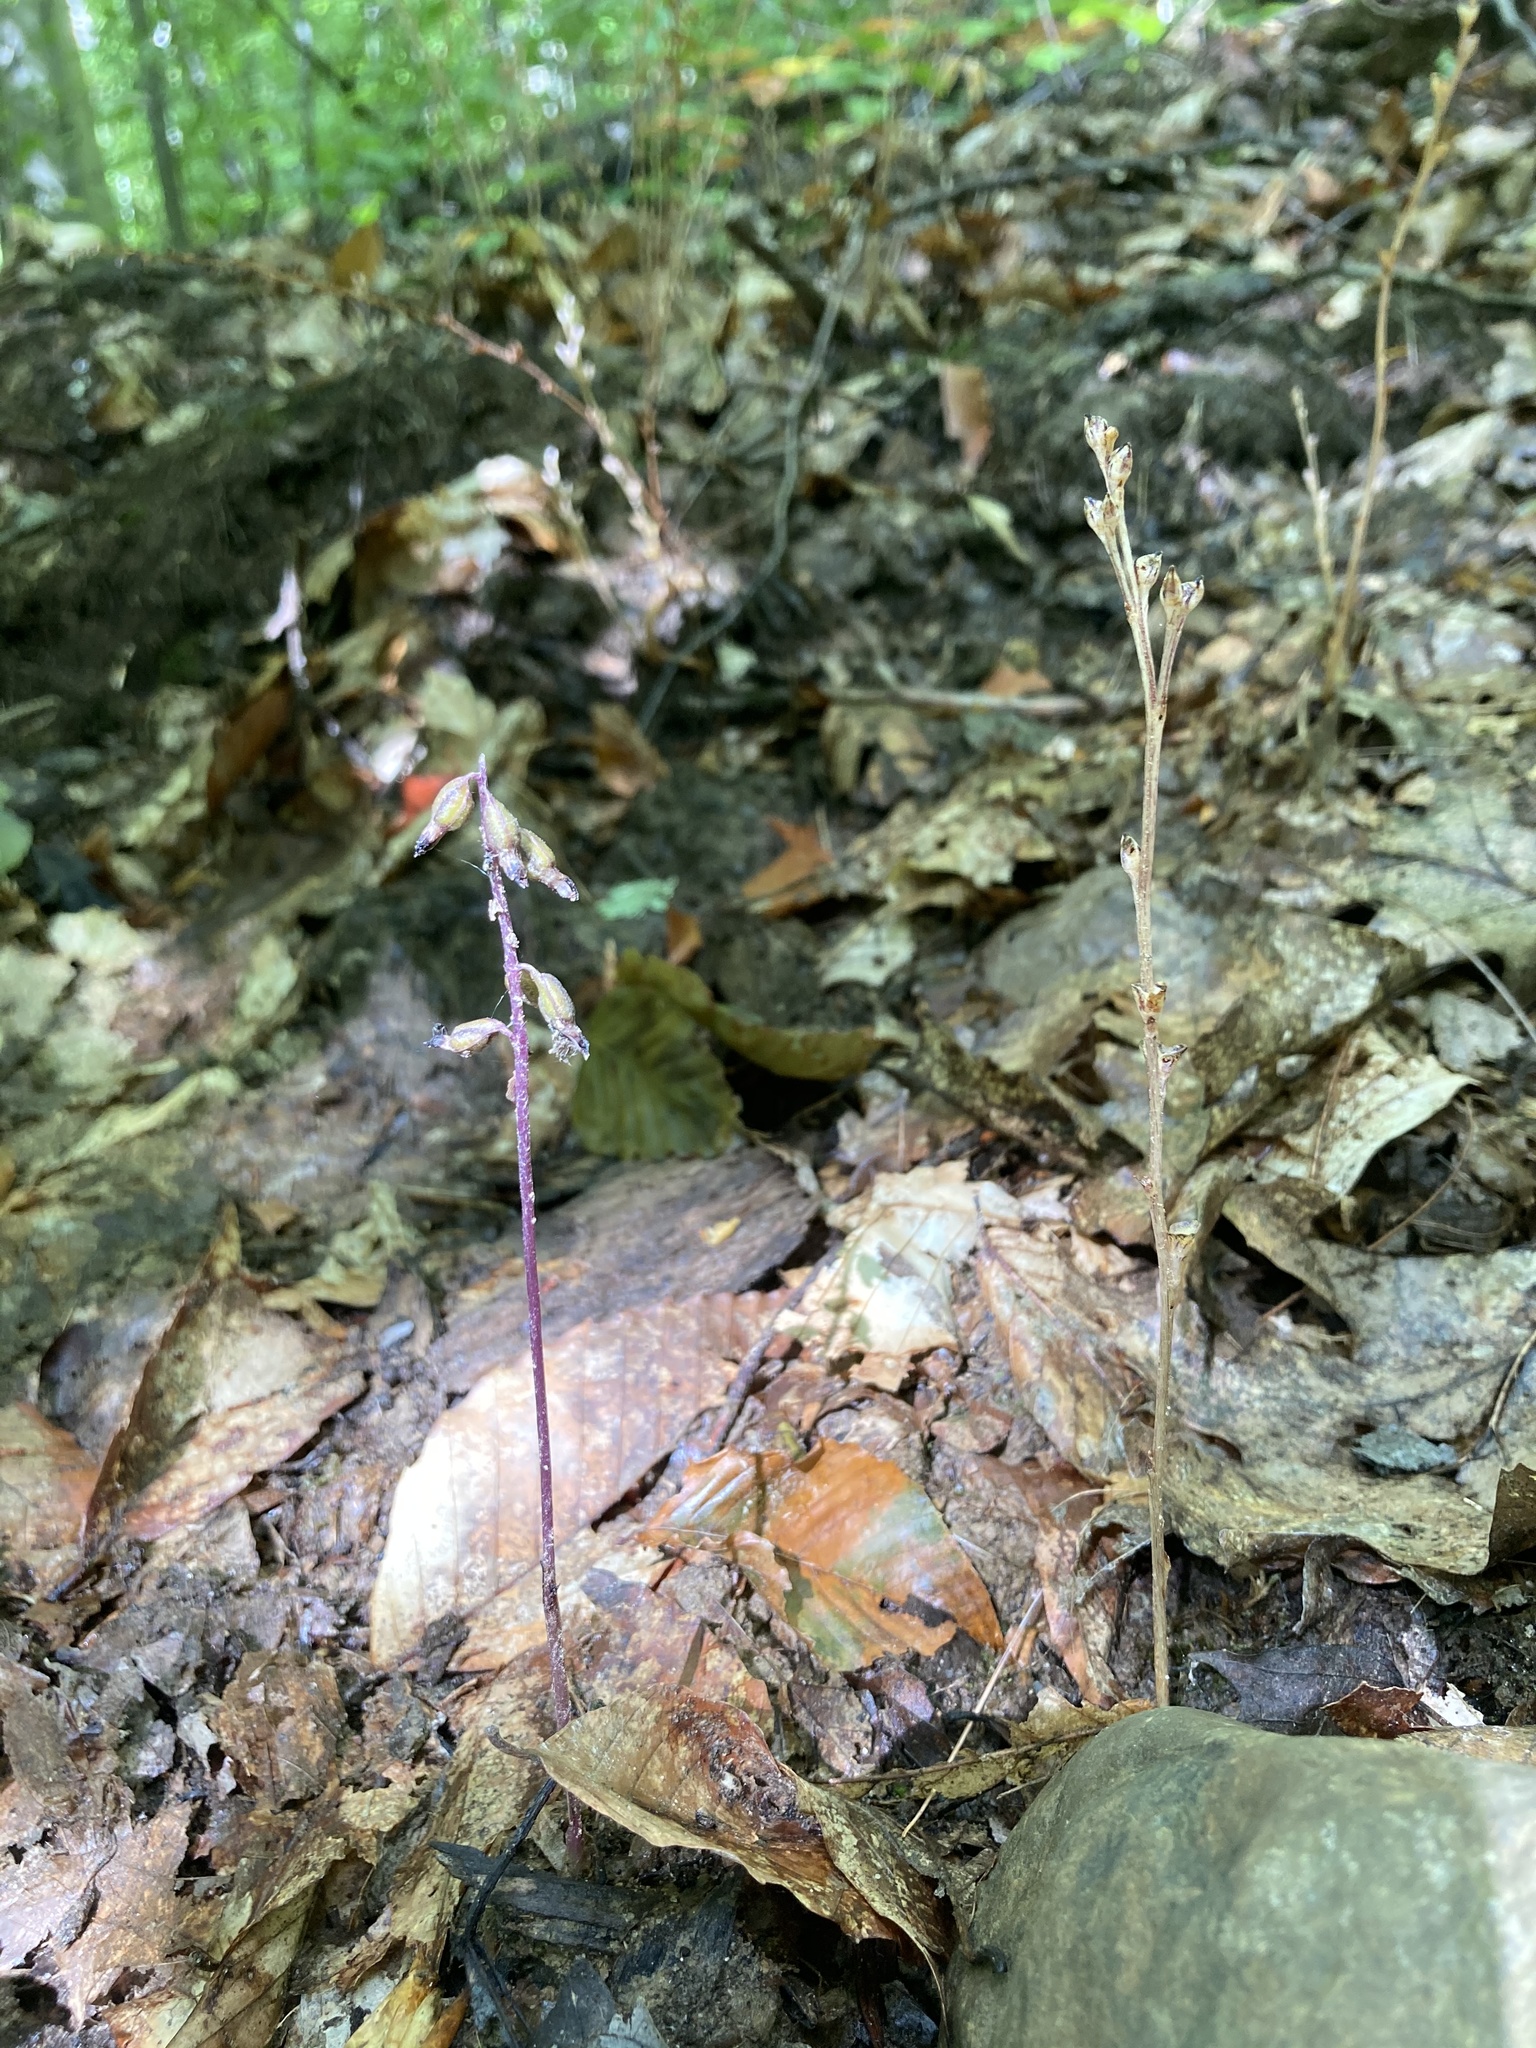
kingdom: Plantae
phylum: Tracheophyta
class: Liliopsida
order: Asparagales
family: Orchidaceae
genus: Corallorhiza
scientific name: Corallorhiza odontorhiza
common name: Autumn coralroot
